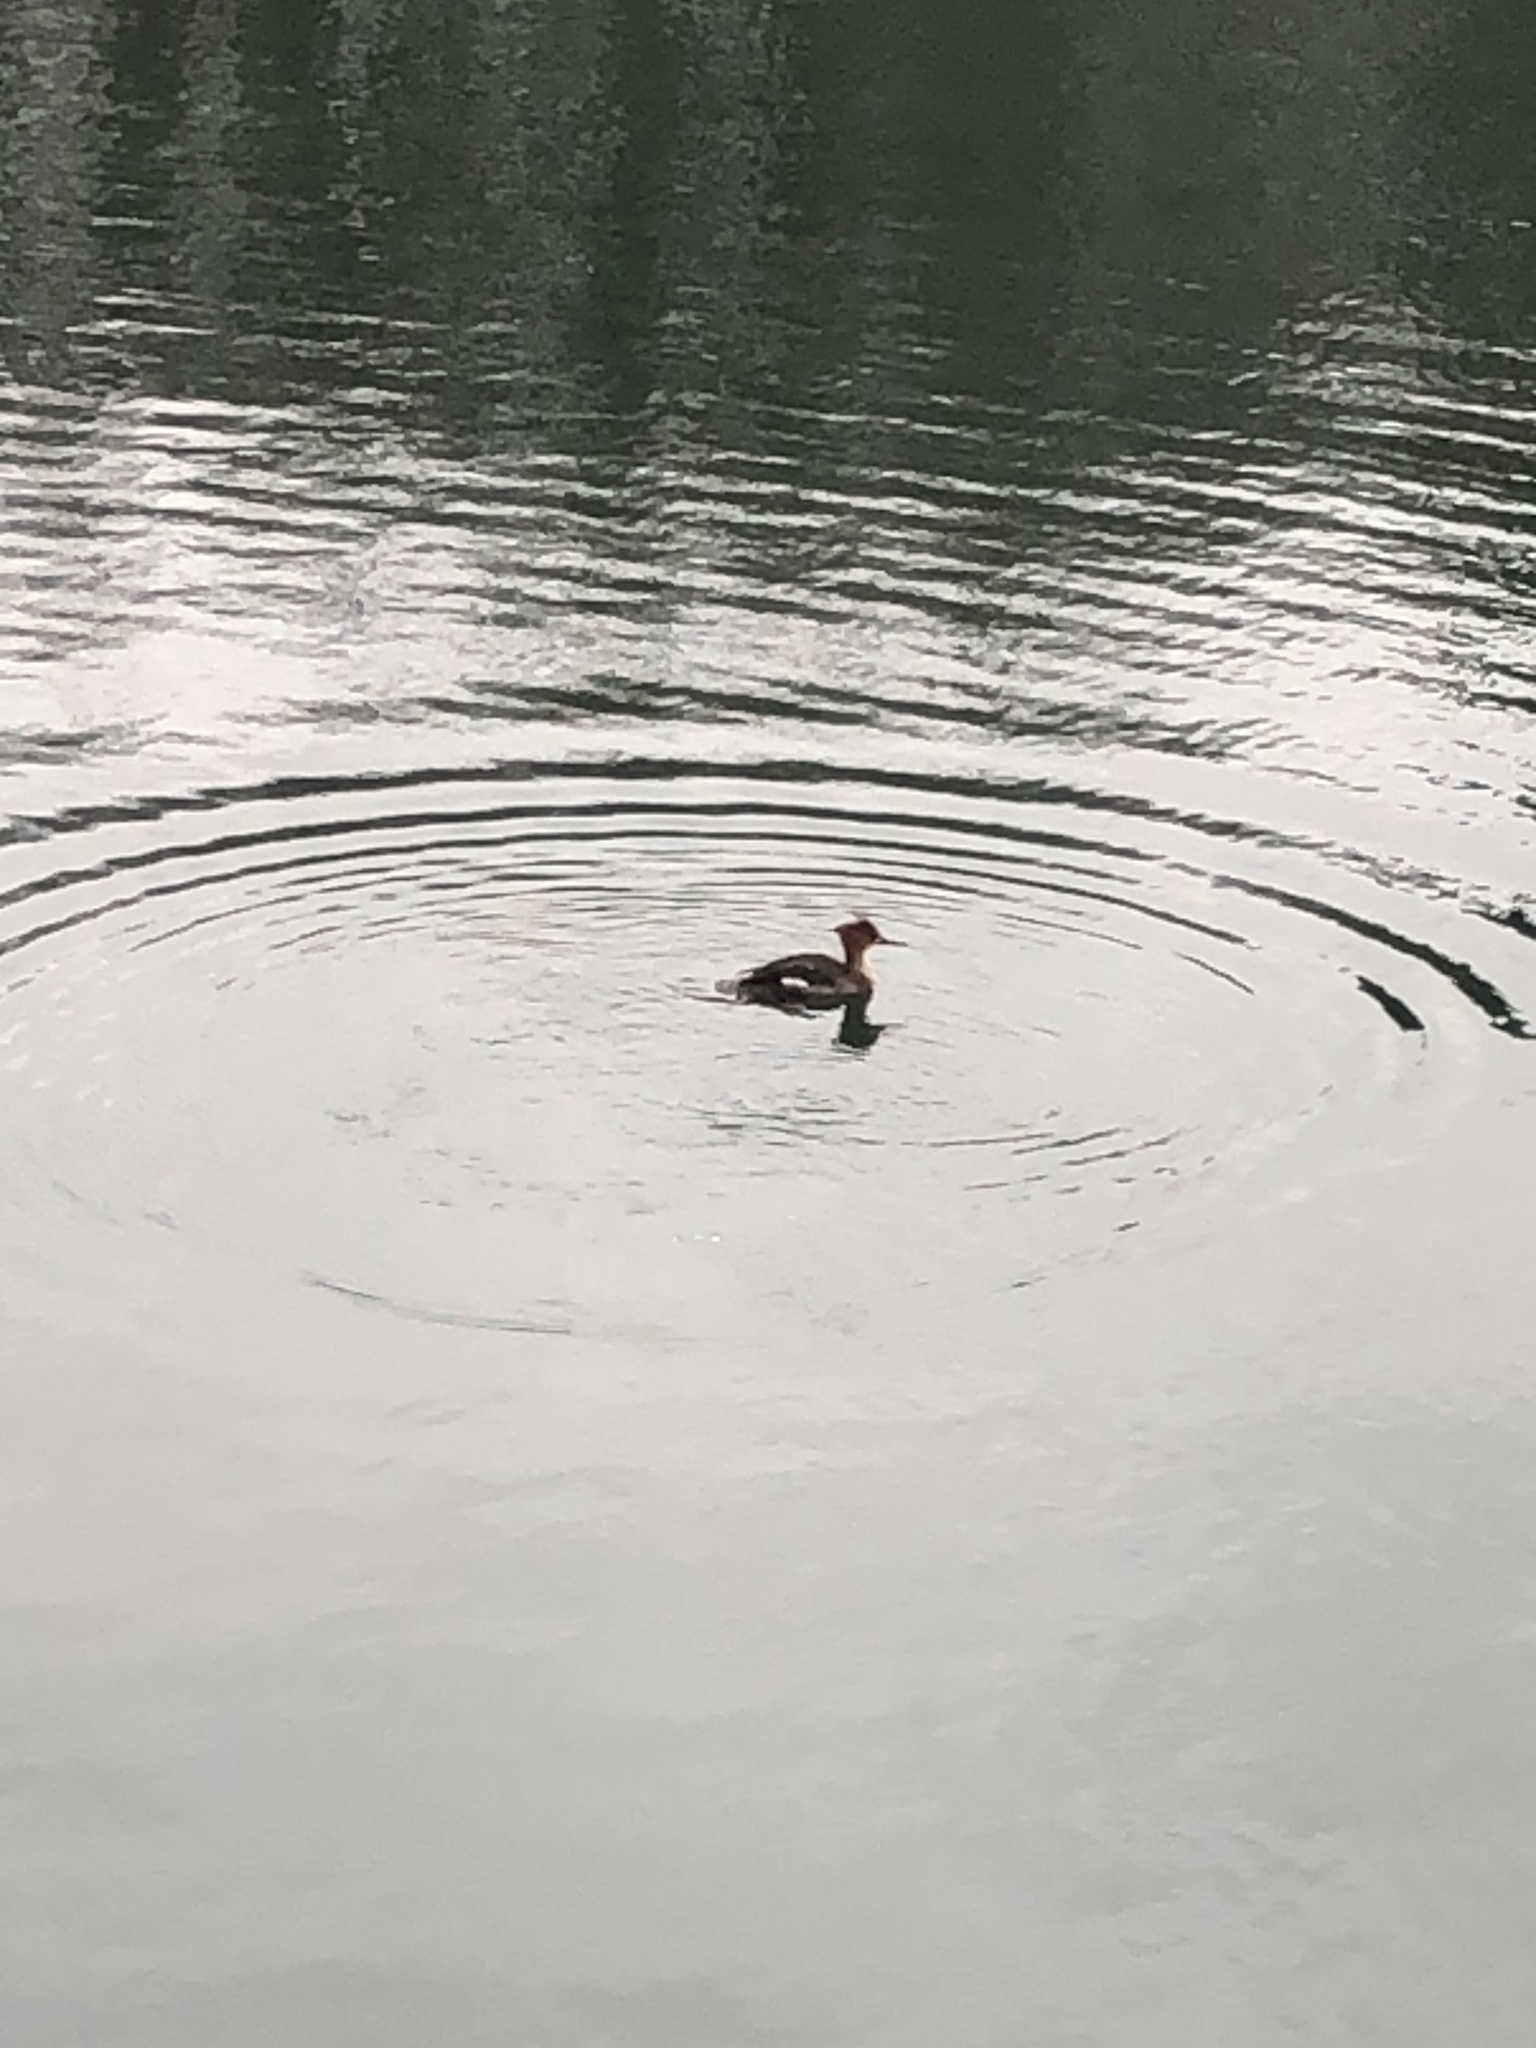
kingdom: Animalia
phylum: Chordata
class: Aves
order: Anseriformes
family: Anatidae
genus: Mergus
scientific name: Mergus serrator
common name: Red-breasted merganser
